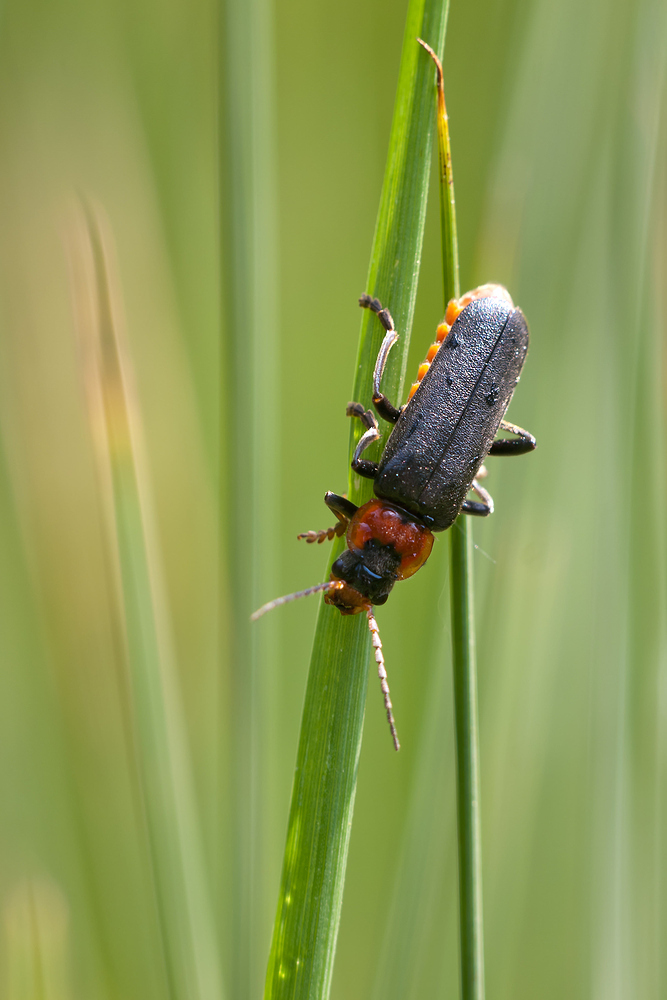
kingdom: Animalia
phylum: Arthropoda
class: Insecta
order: Coleoptera
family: Cantharidae
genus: Cantharis
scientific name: Cantharis fusca
